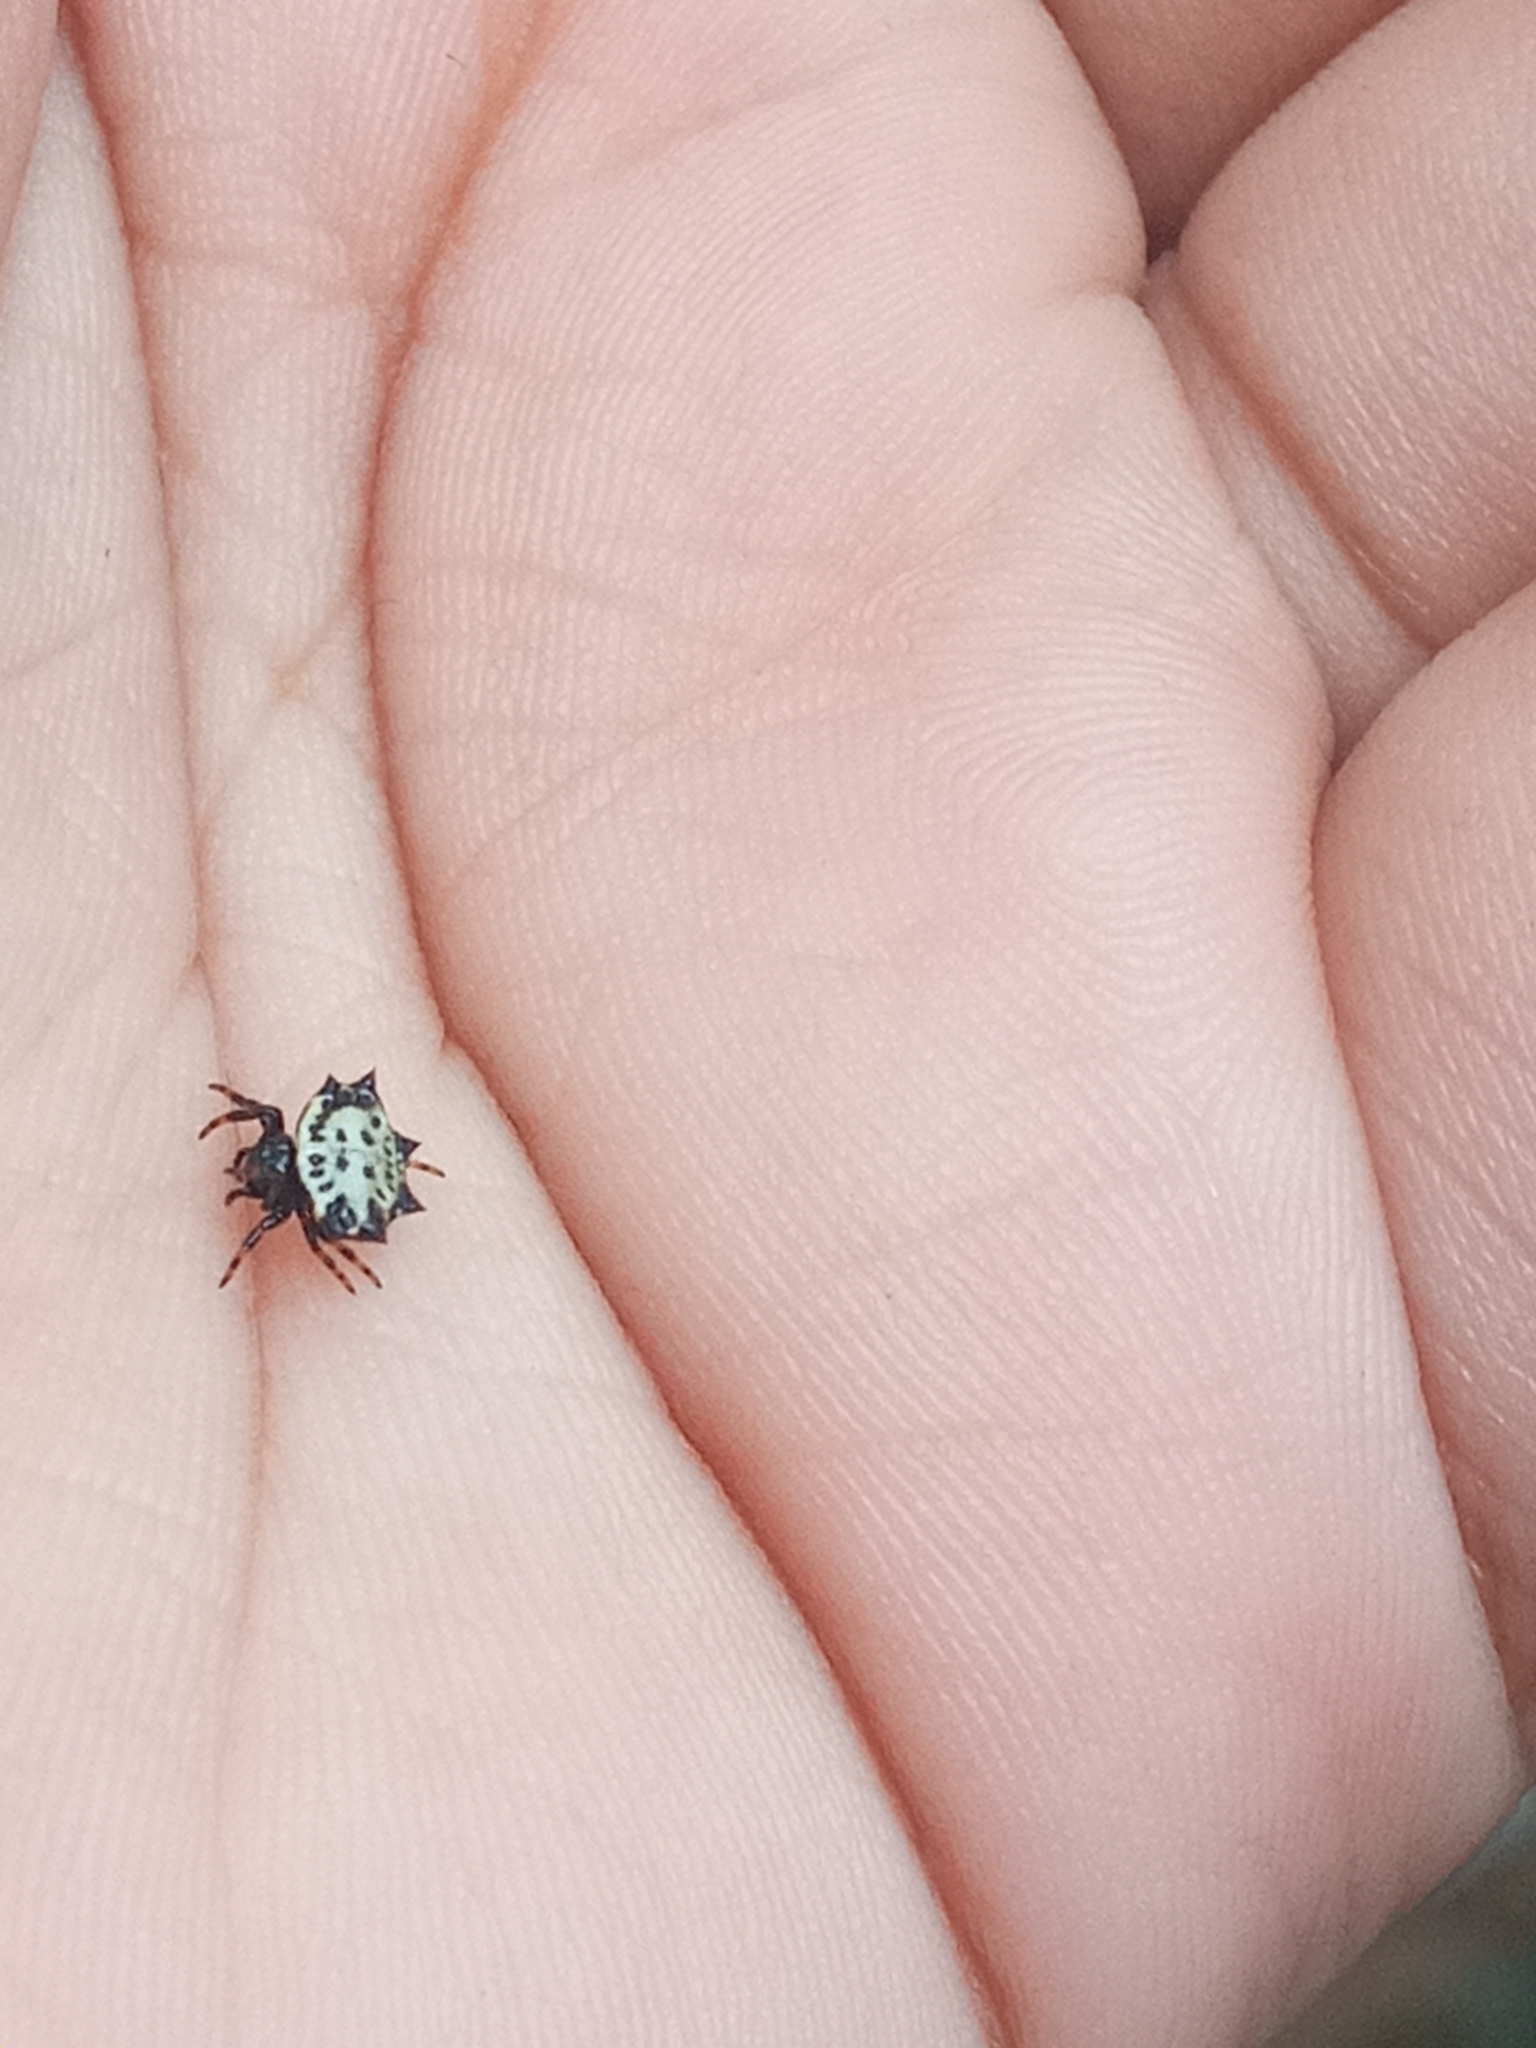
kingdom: Animalia
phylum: Arthropoda
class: Arachnida
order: Araneae
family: Araneidae
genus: Gasteracantha
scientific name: Gasteracantha cancriformis
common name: Orb weavers
